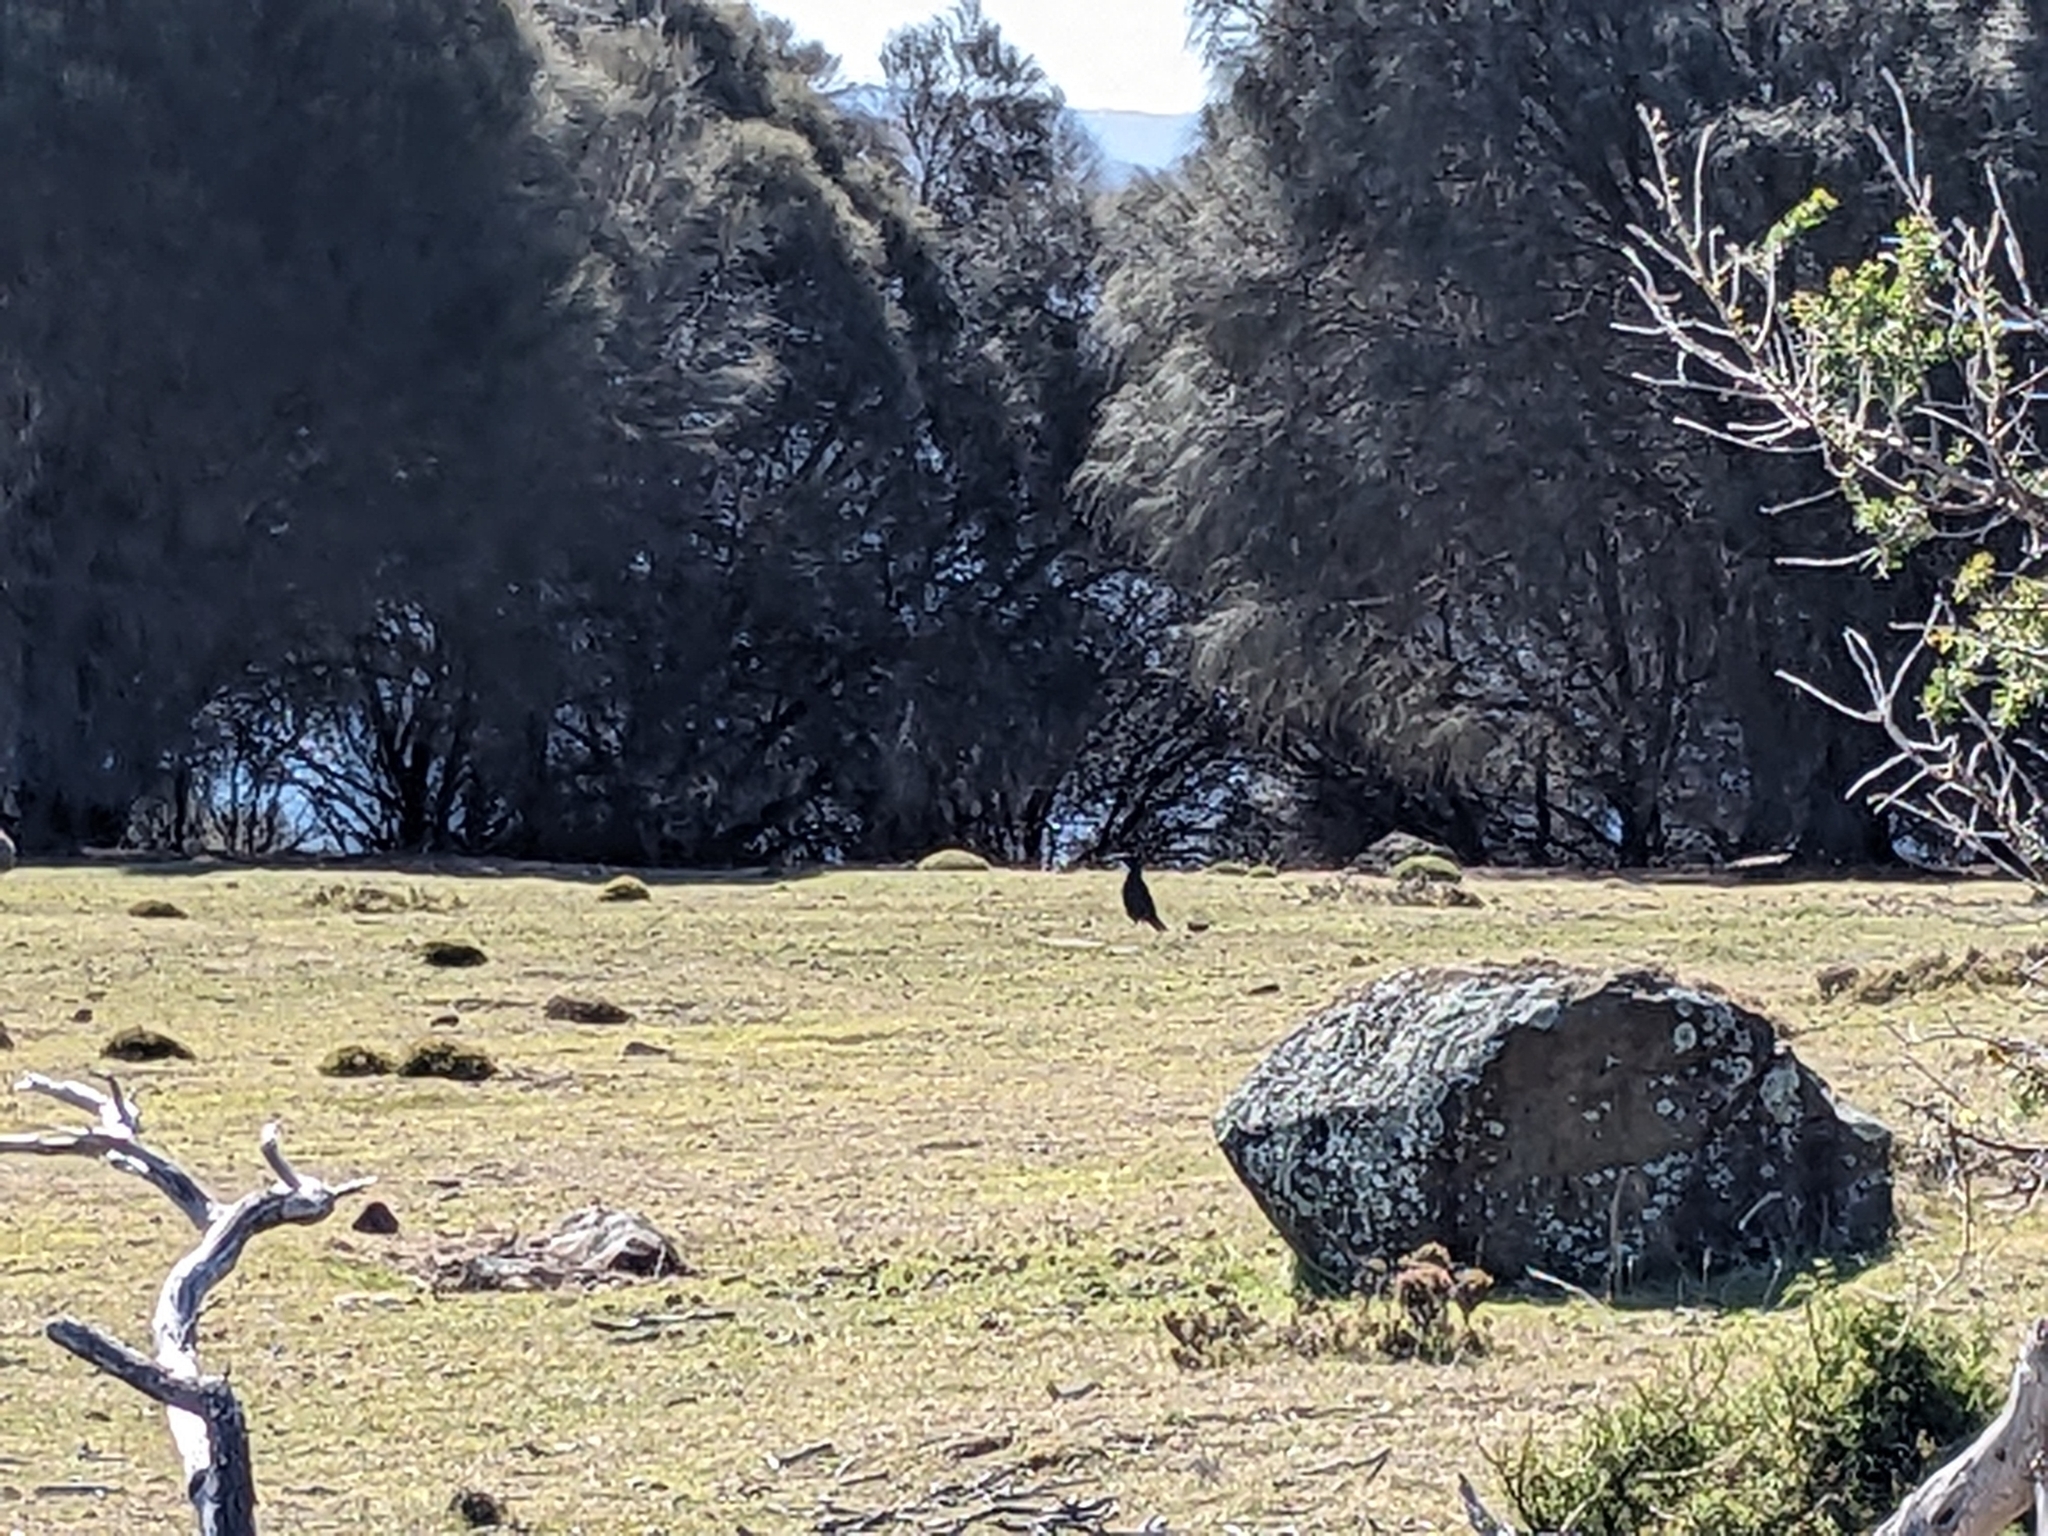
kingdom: Animalia
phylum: Chordata
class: Aves
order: Passeriformes
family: Corvidae
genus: Corvus
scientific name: Corvus tasmanicus
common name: Forest raven
